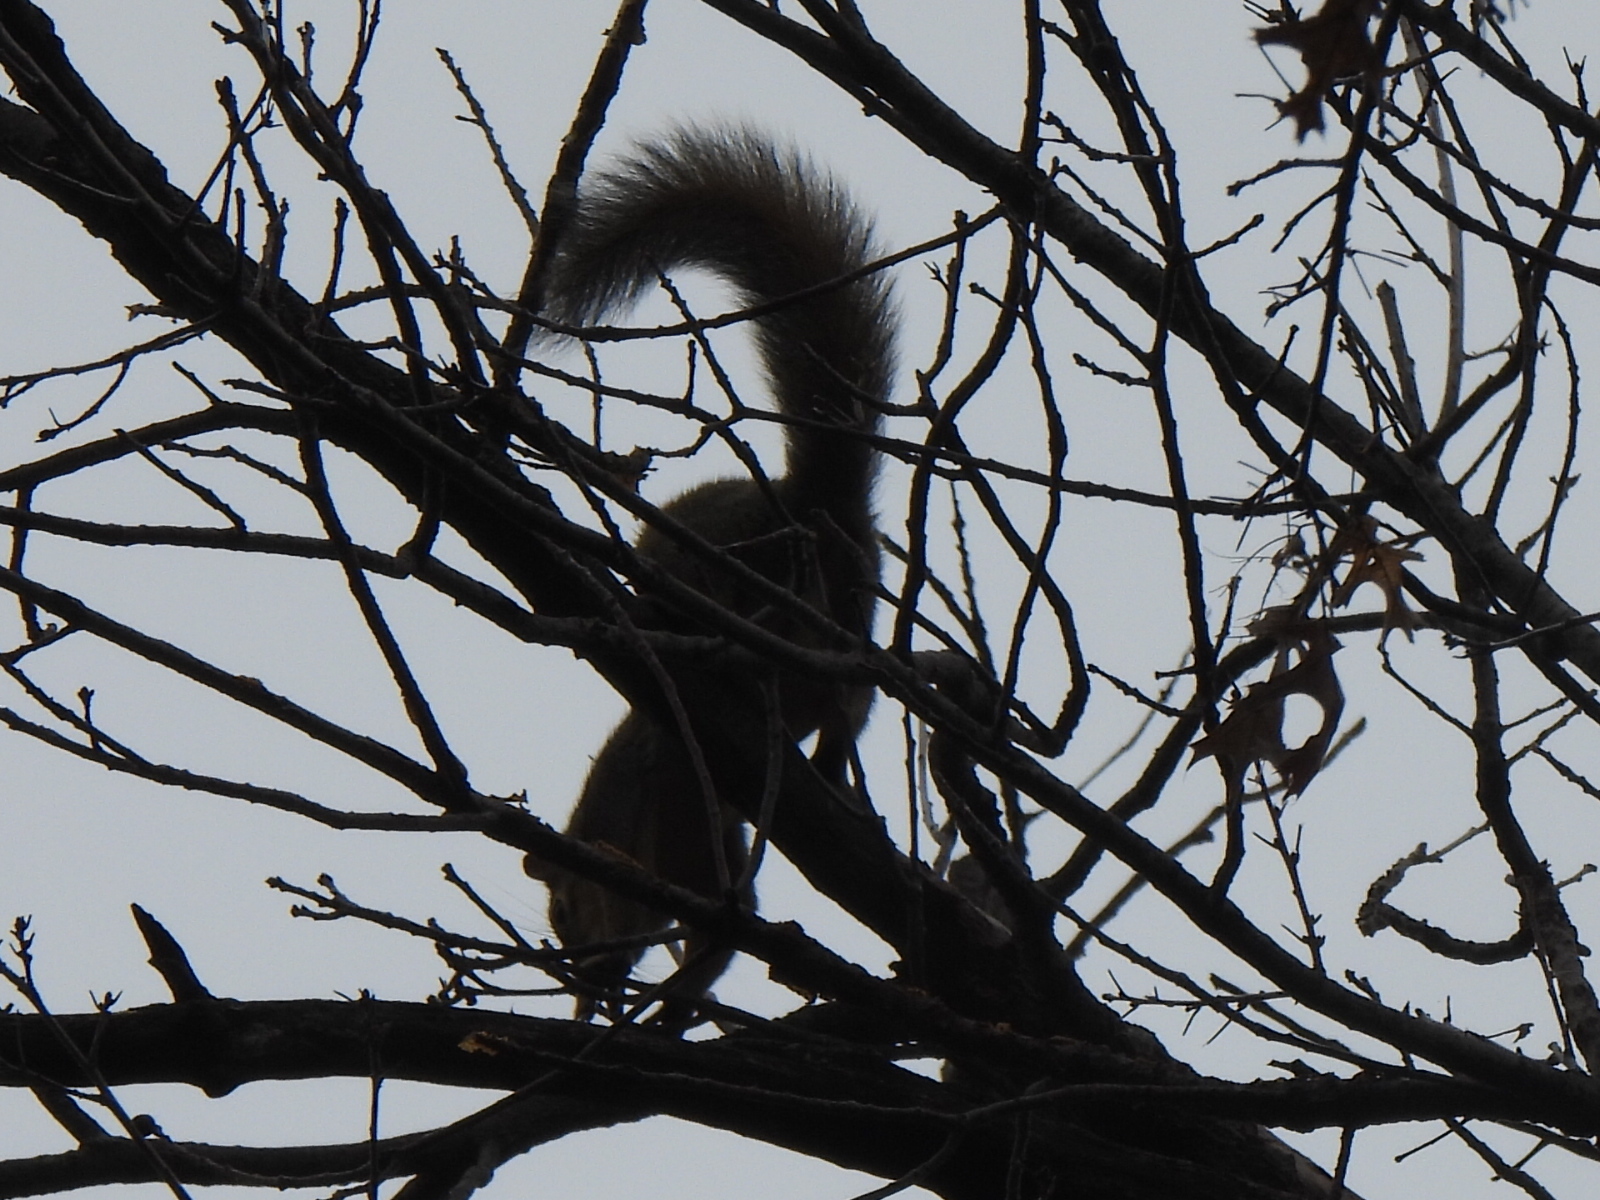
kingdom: Animalia
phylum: Chordata
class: Mammalia
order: Rodentia
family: Sciuridae
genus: Sciurus
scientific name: Sciurus niger
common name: Fox squirrel
